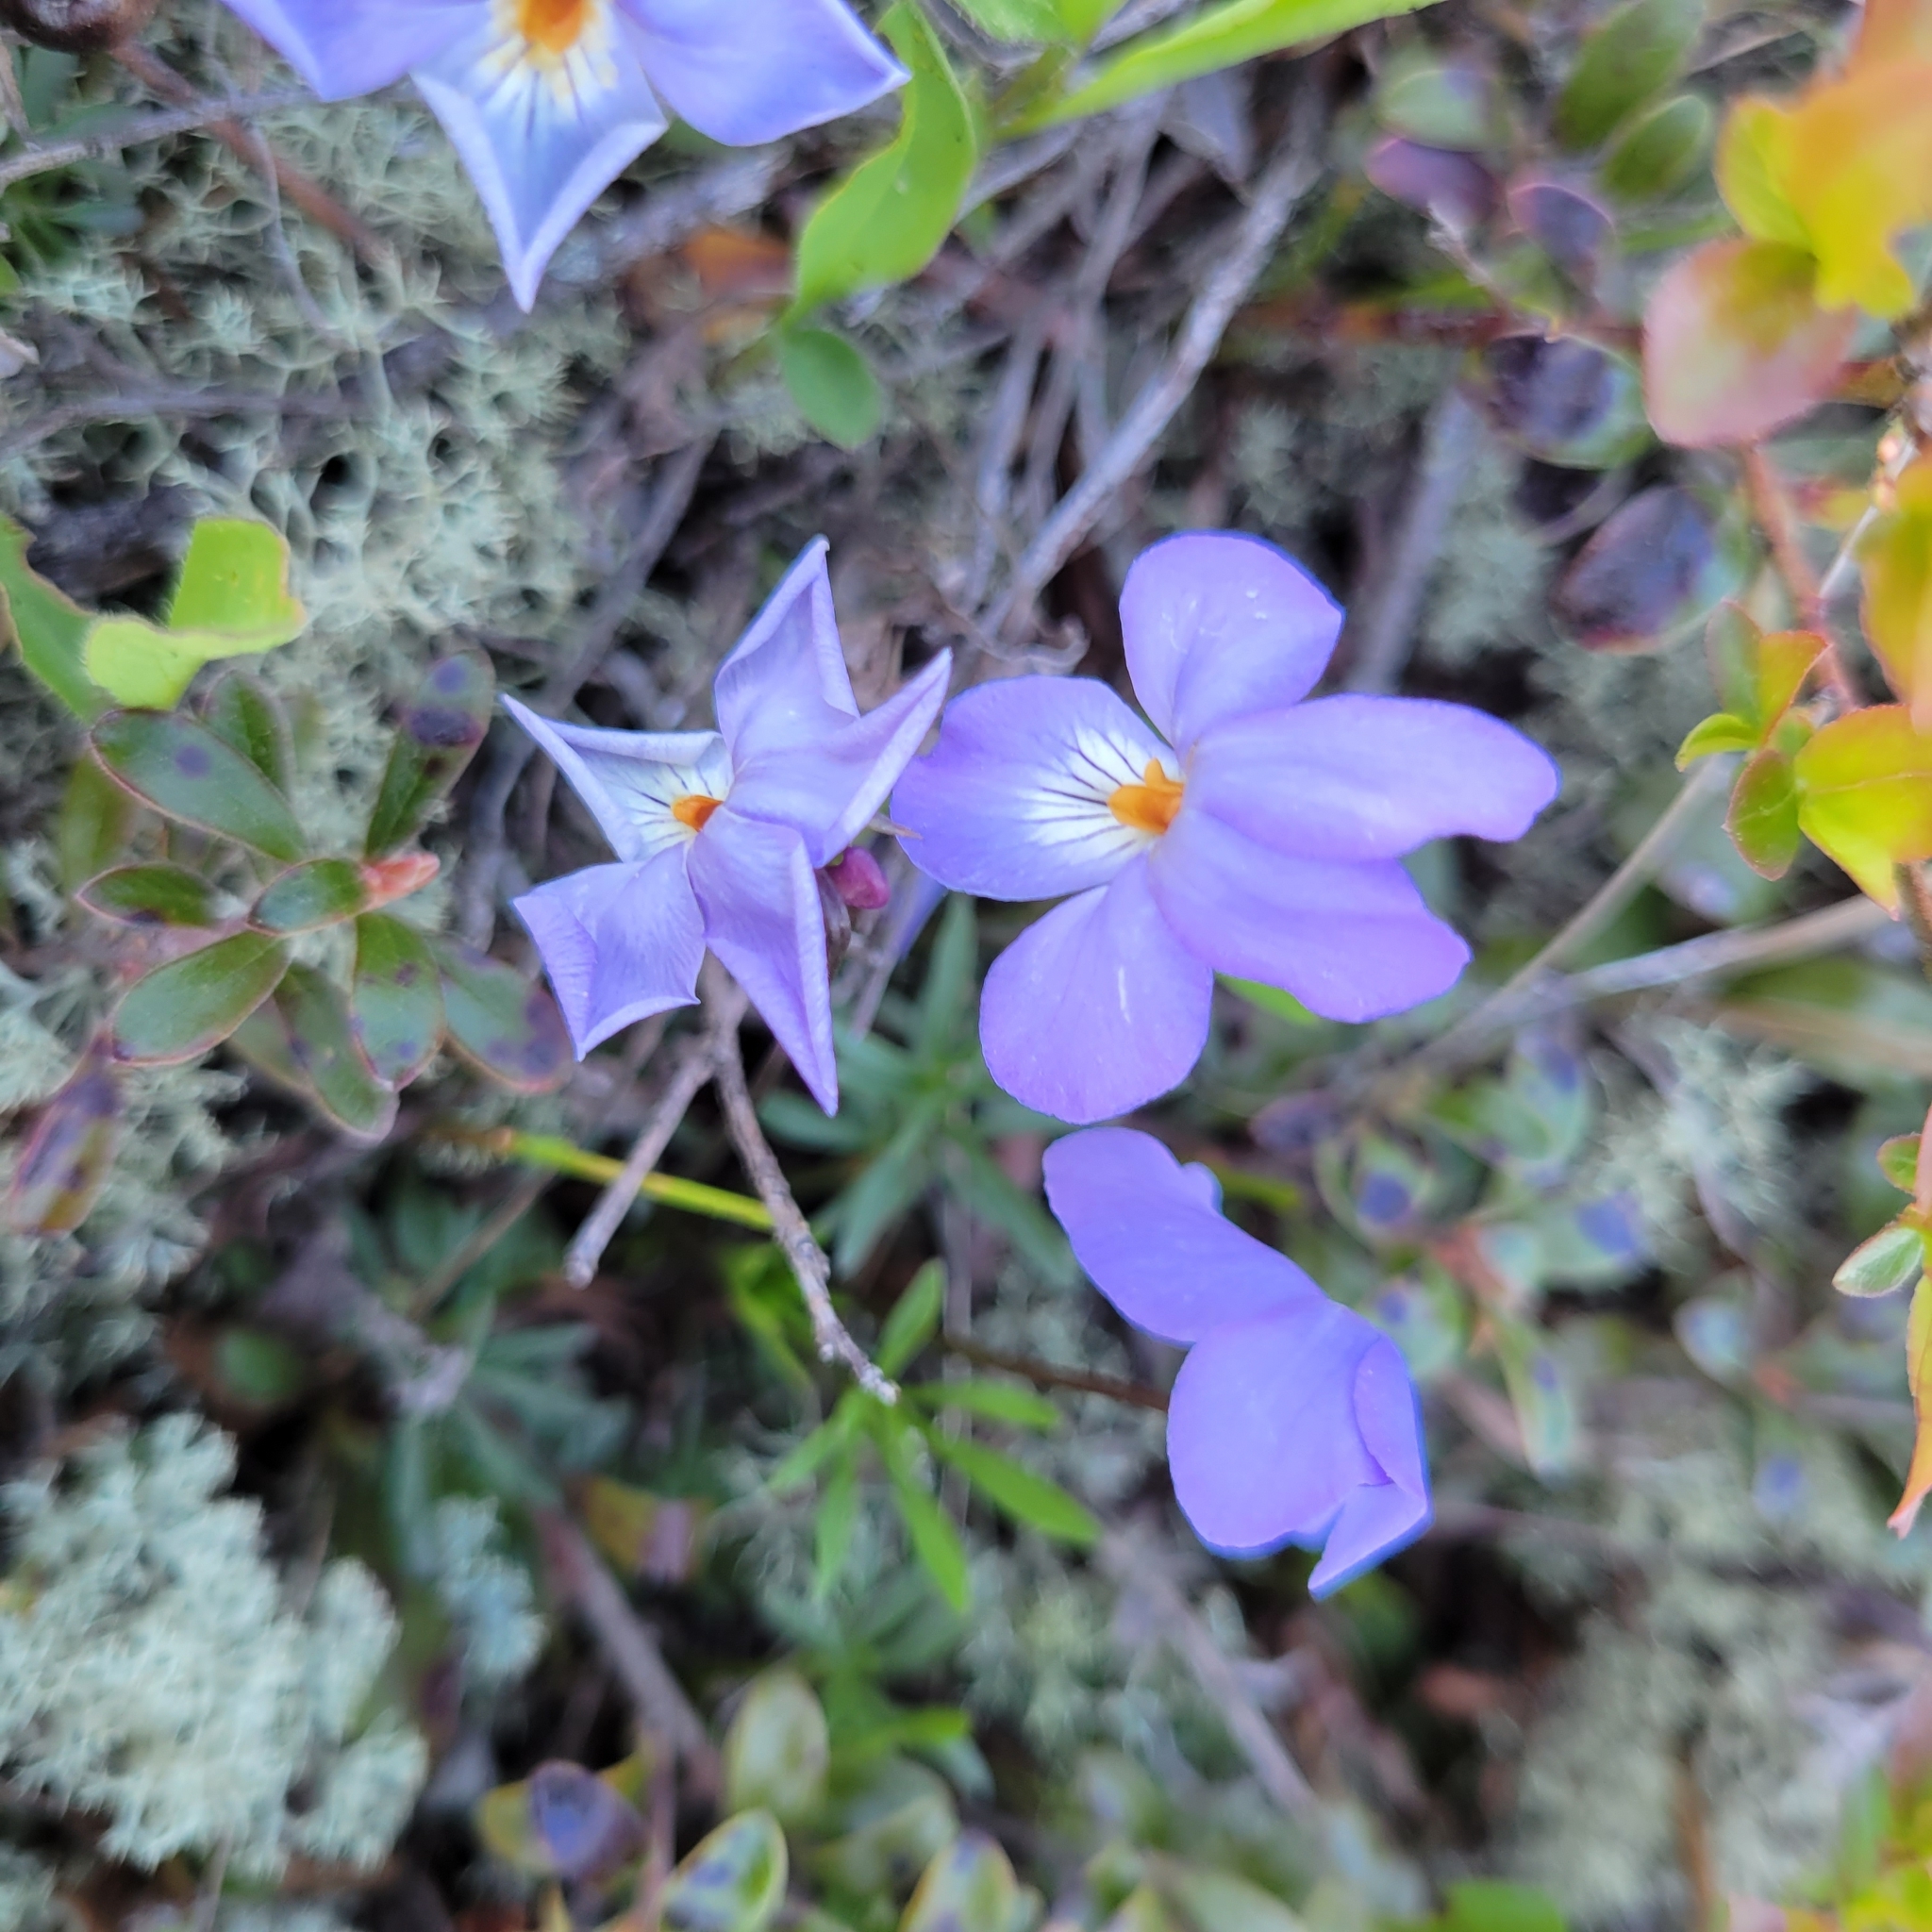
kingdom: Plantae
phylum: Tracheophyta
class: Magnoliopsida
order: Malpighiales
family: Violaceae
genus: Viola
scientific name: Viola pedata
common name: Pansy violet
